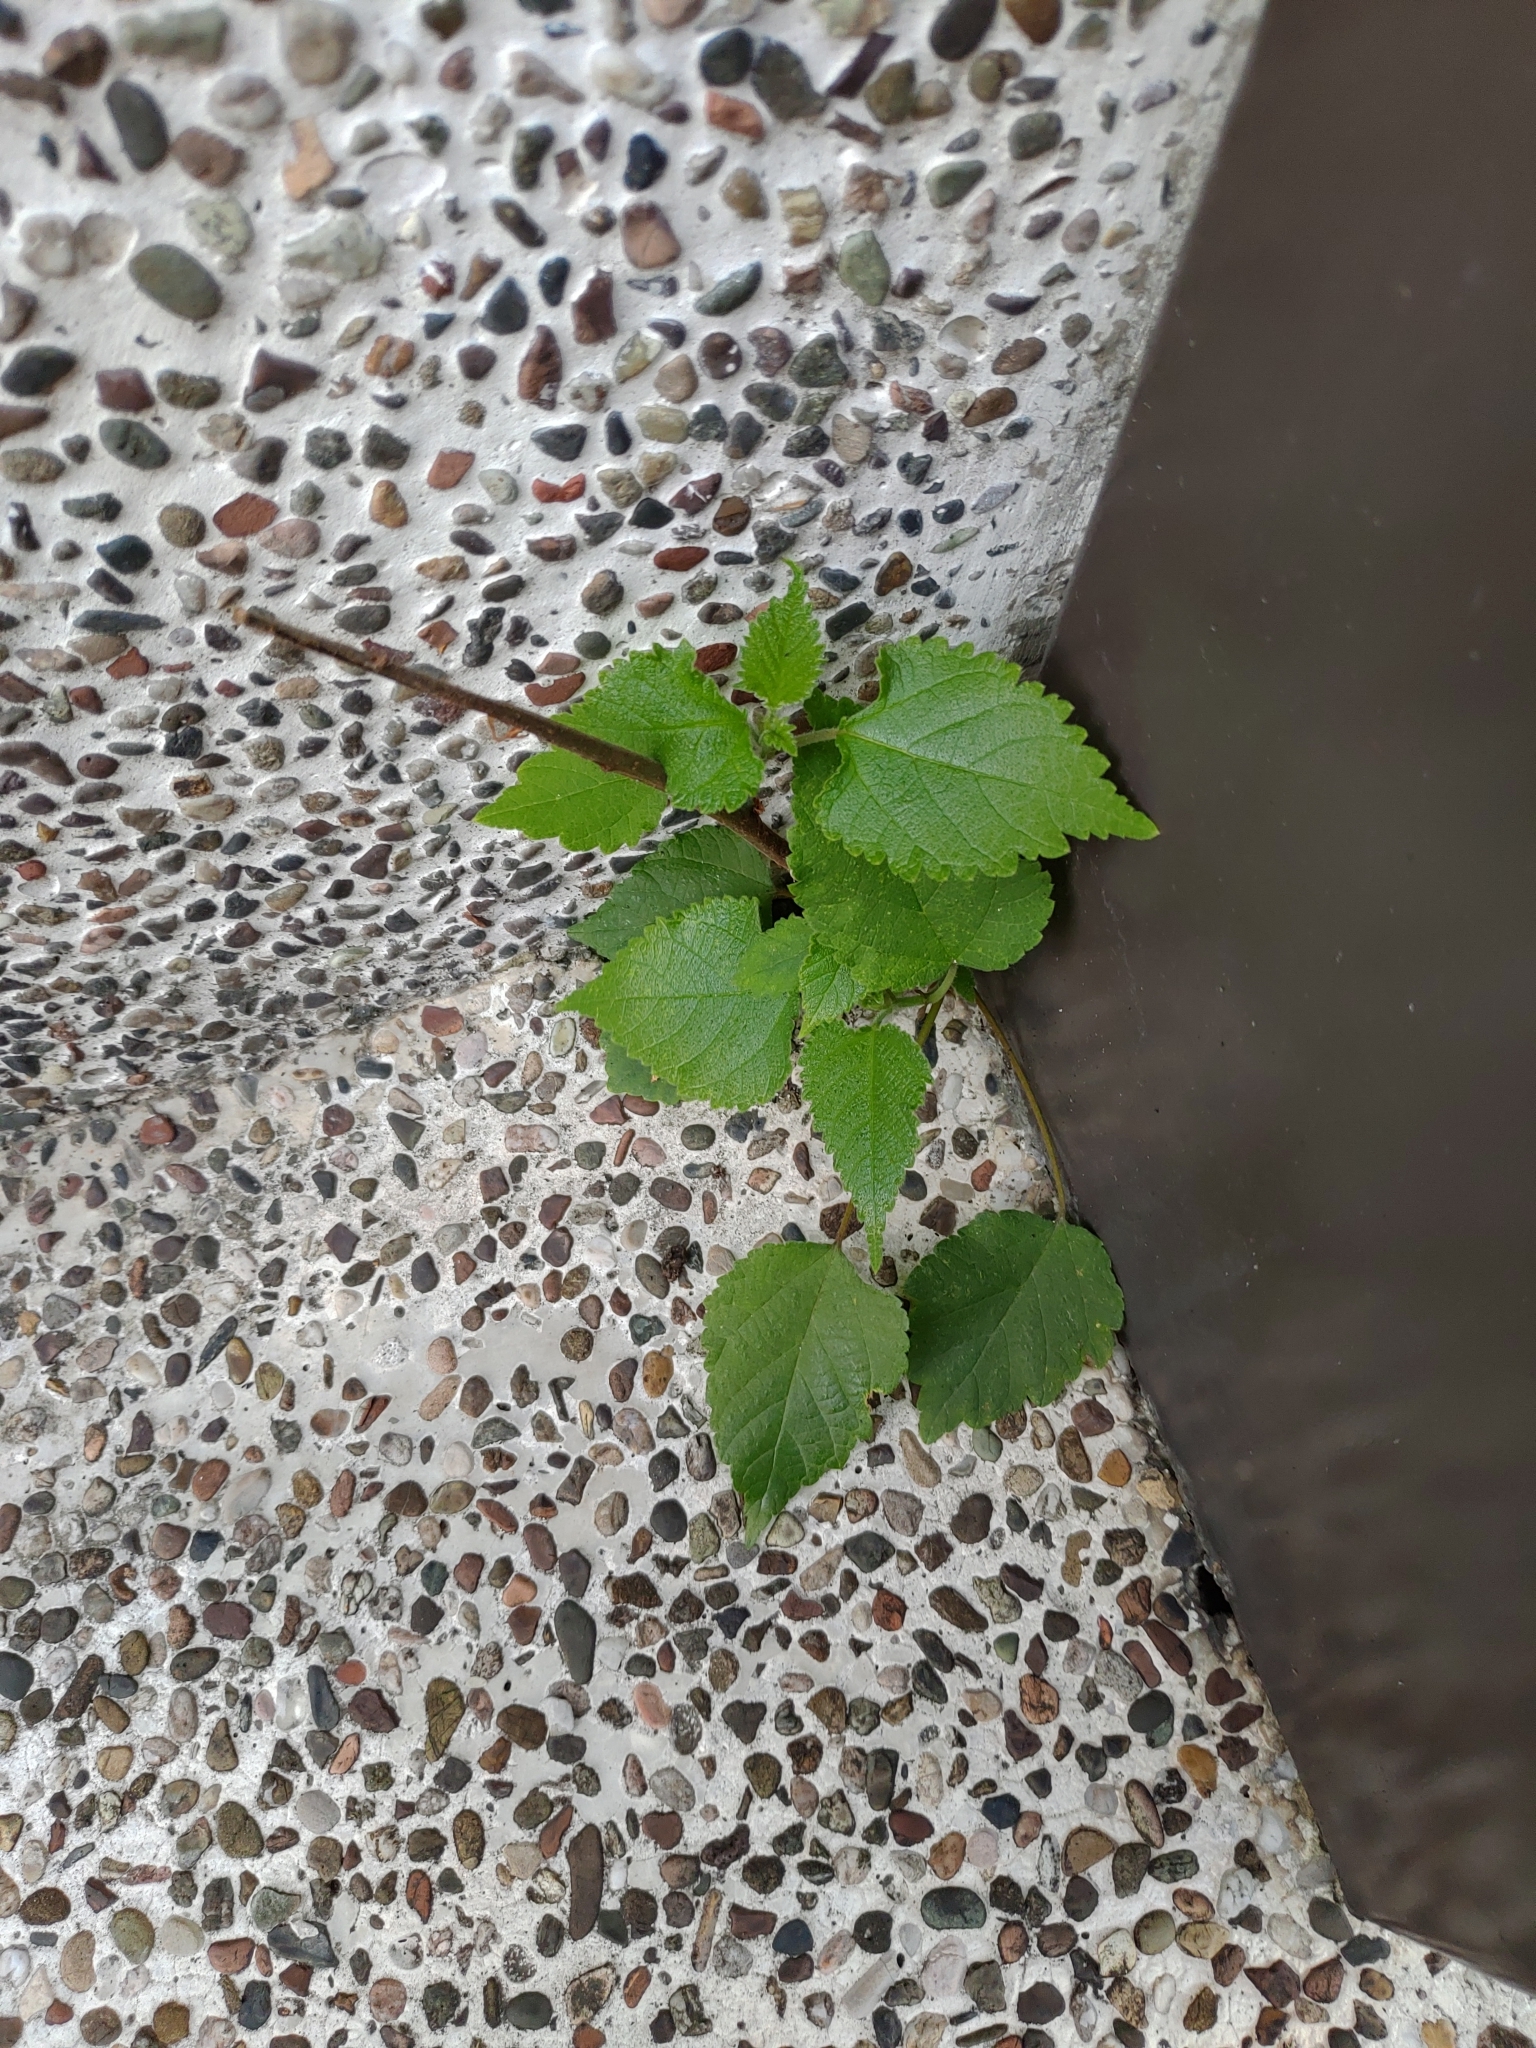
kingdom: Plantae
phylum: Tracheophyta
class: Magnoliopsida
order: Rosales
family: Moraceae
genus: Broussonetia
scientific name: Broussonetia papyrifera
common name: Paper mulberry
